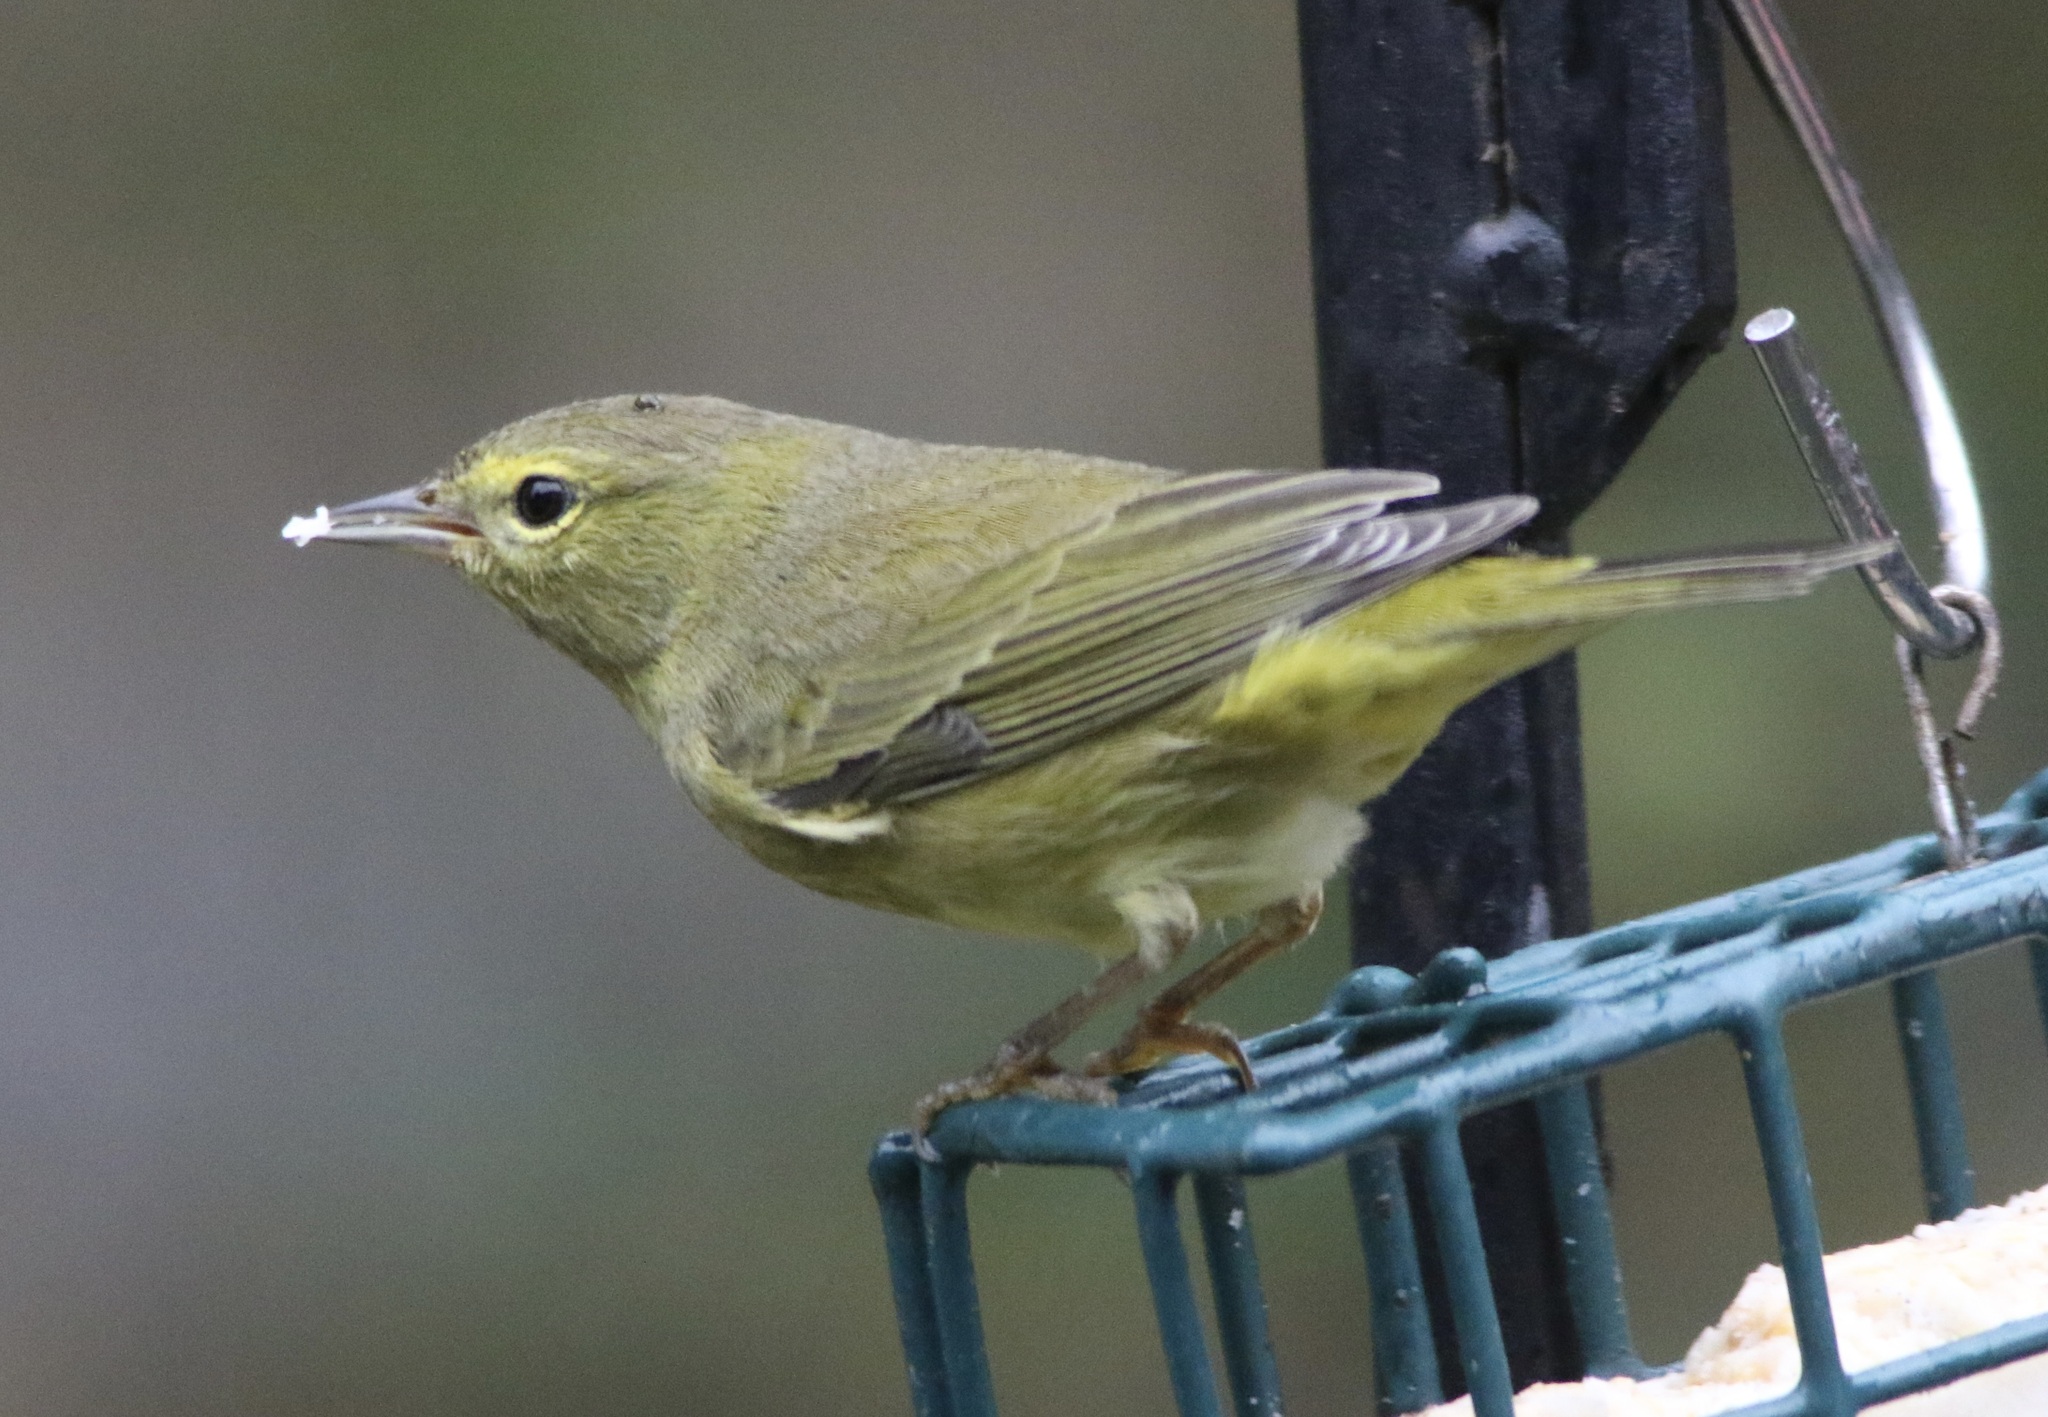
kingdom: Animalia
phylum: Chordata
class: Aves
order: Passeriformes
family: Parulidae
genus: Leiothlypis
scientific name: Leiothlypis celata
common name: Orange-crowned warbler
